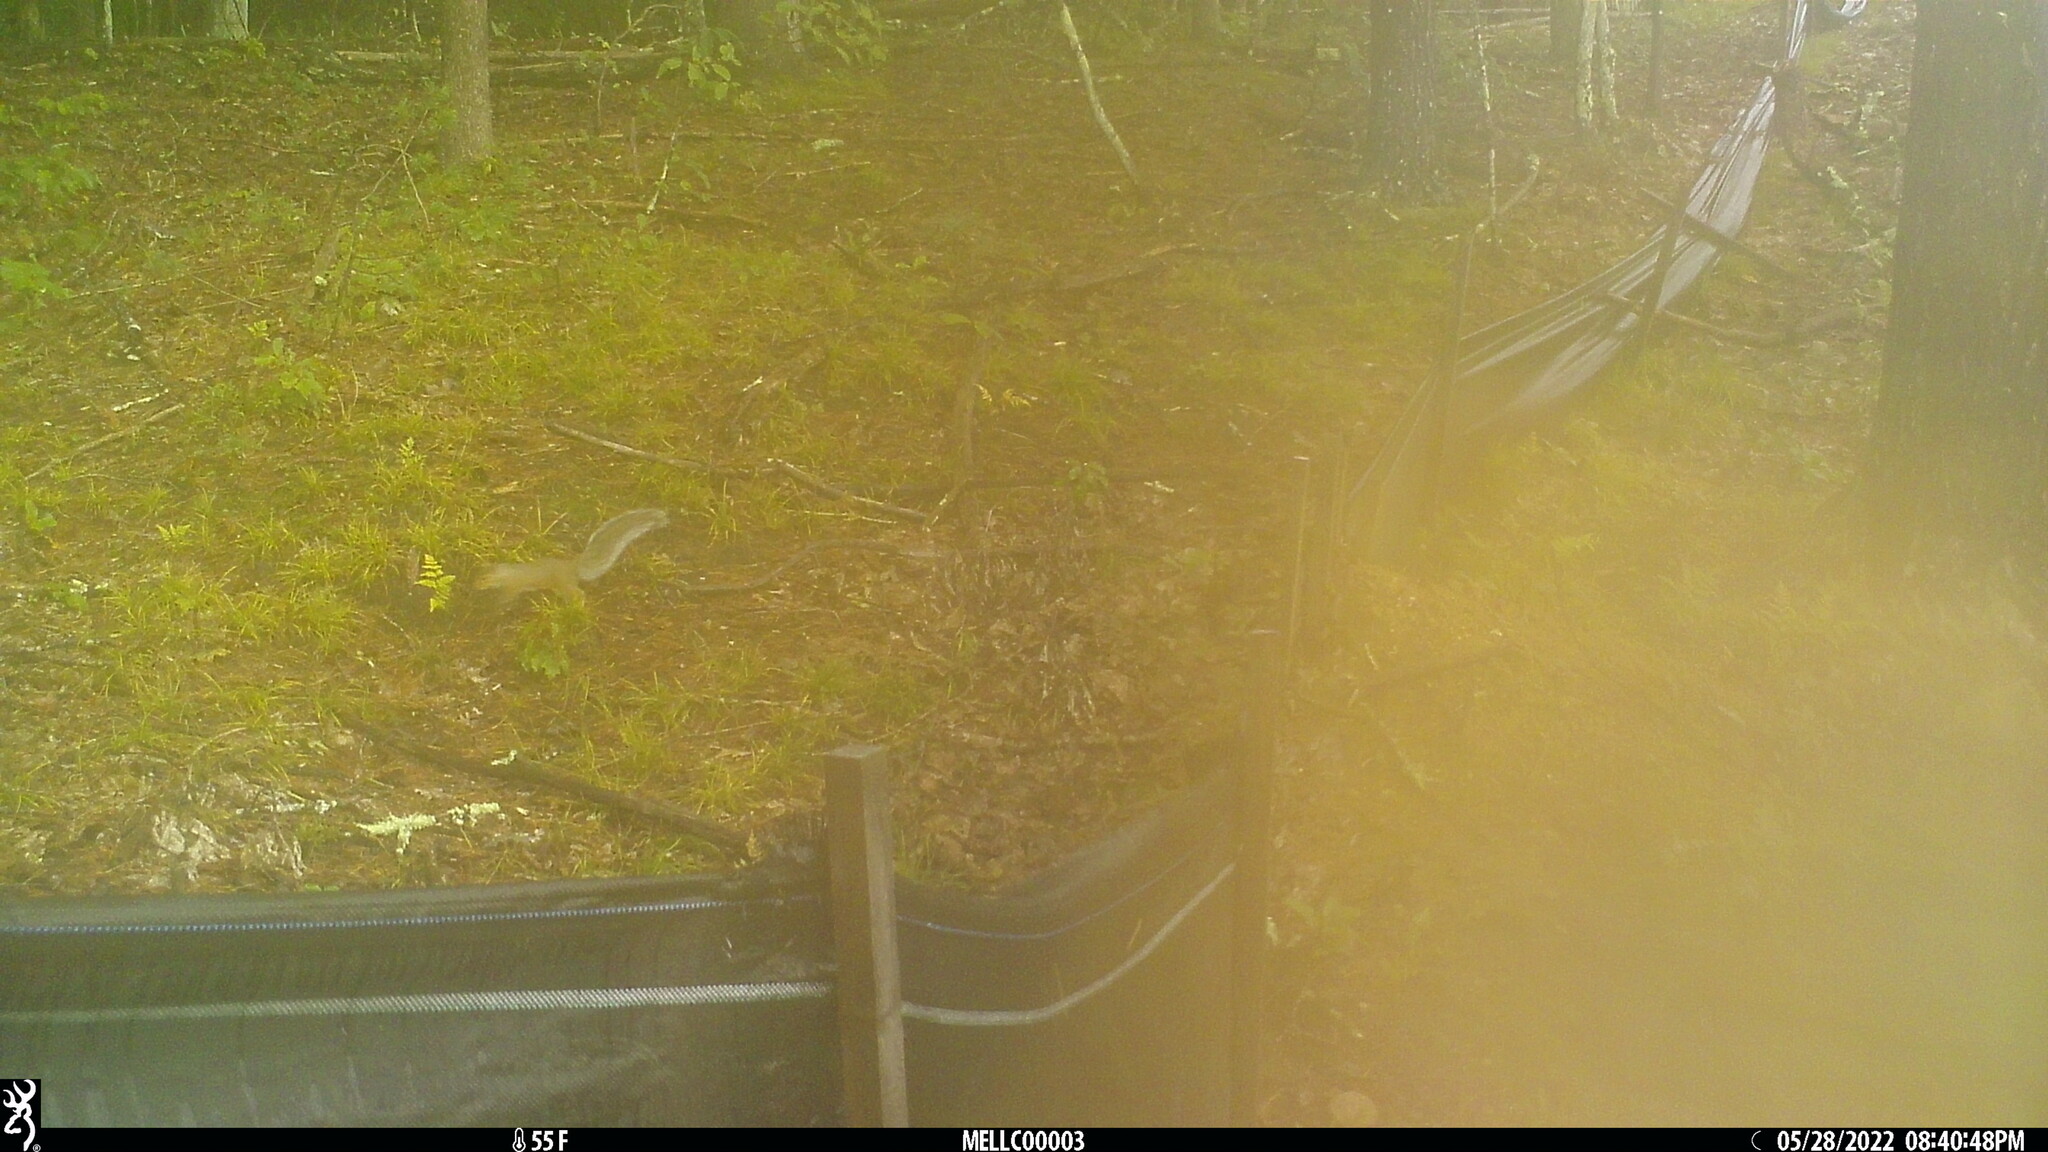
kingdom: Animalia
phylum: Chordata
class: Mammalia
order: Rodentia
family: Sciuridae
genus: Sciurus
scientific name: Sciurus carolinensis
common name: Eastern gray squirrel
